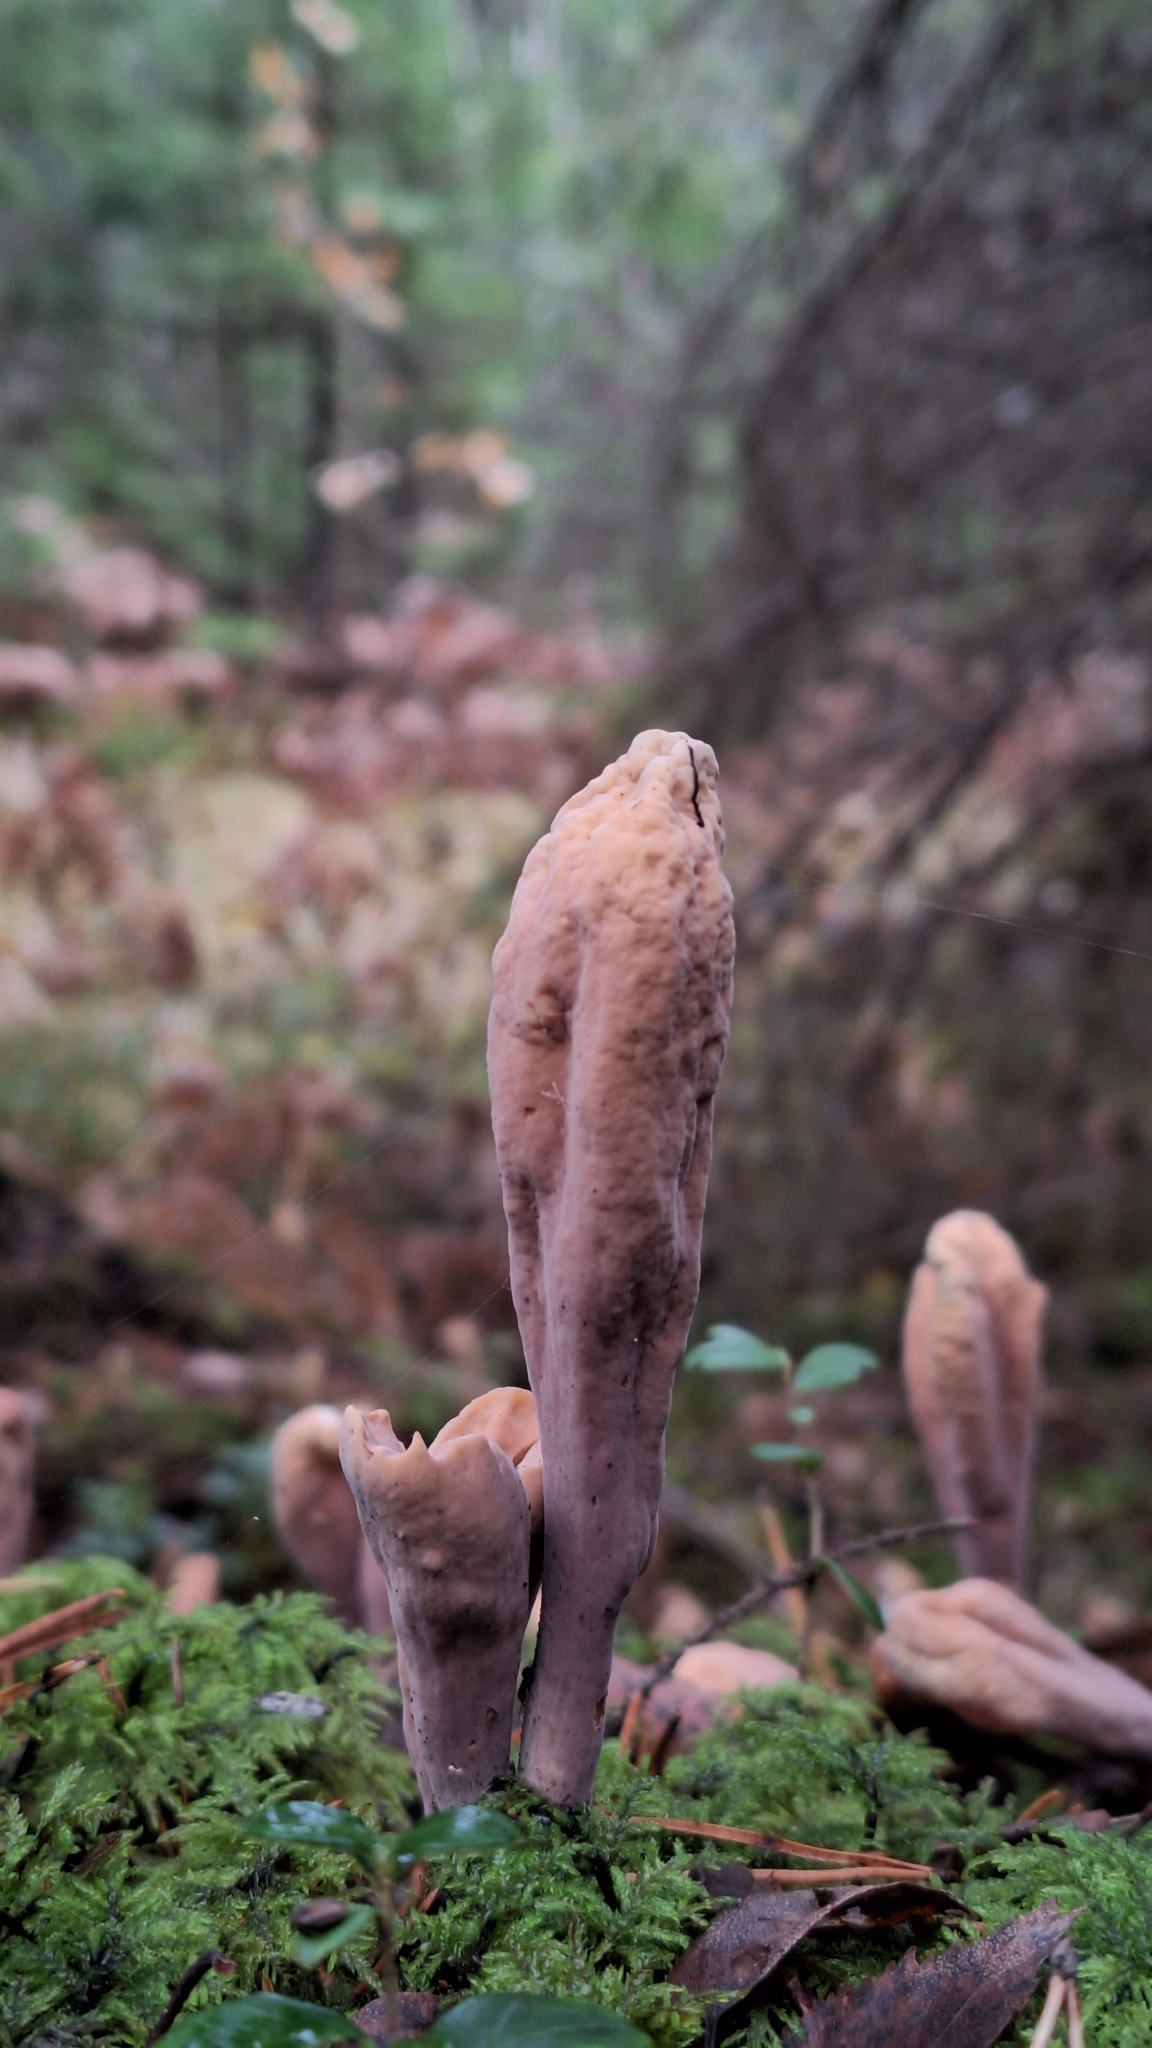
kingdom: Fungi
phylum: Basidiomycota
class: Agaricomycetes
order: Gomphales
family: Clavariadelphaceae
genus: Clavariadelphus
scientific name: Clavariadelphus ligula
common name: Ochre club
